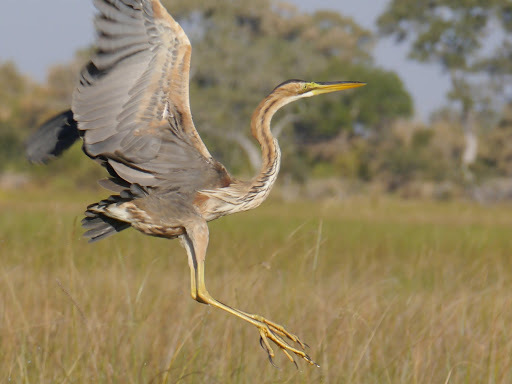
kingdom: Animalia
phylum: Chordata
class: Aves
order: Pelecaniformes
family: Ardeidae
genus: Ardea
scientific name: Ardea purpurea
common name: Purple heron
